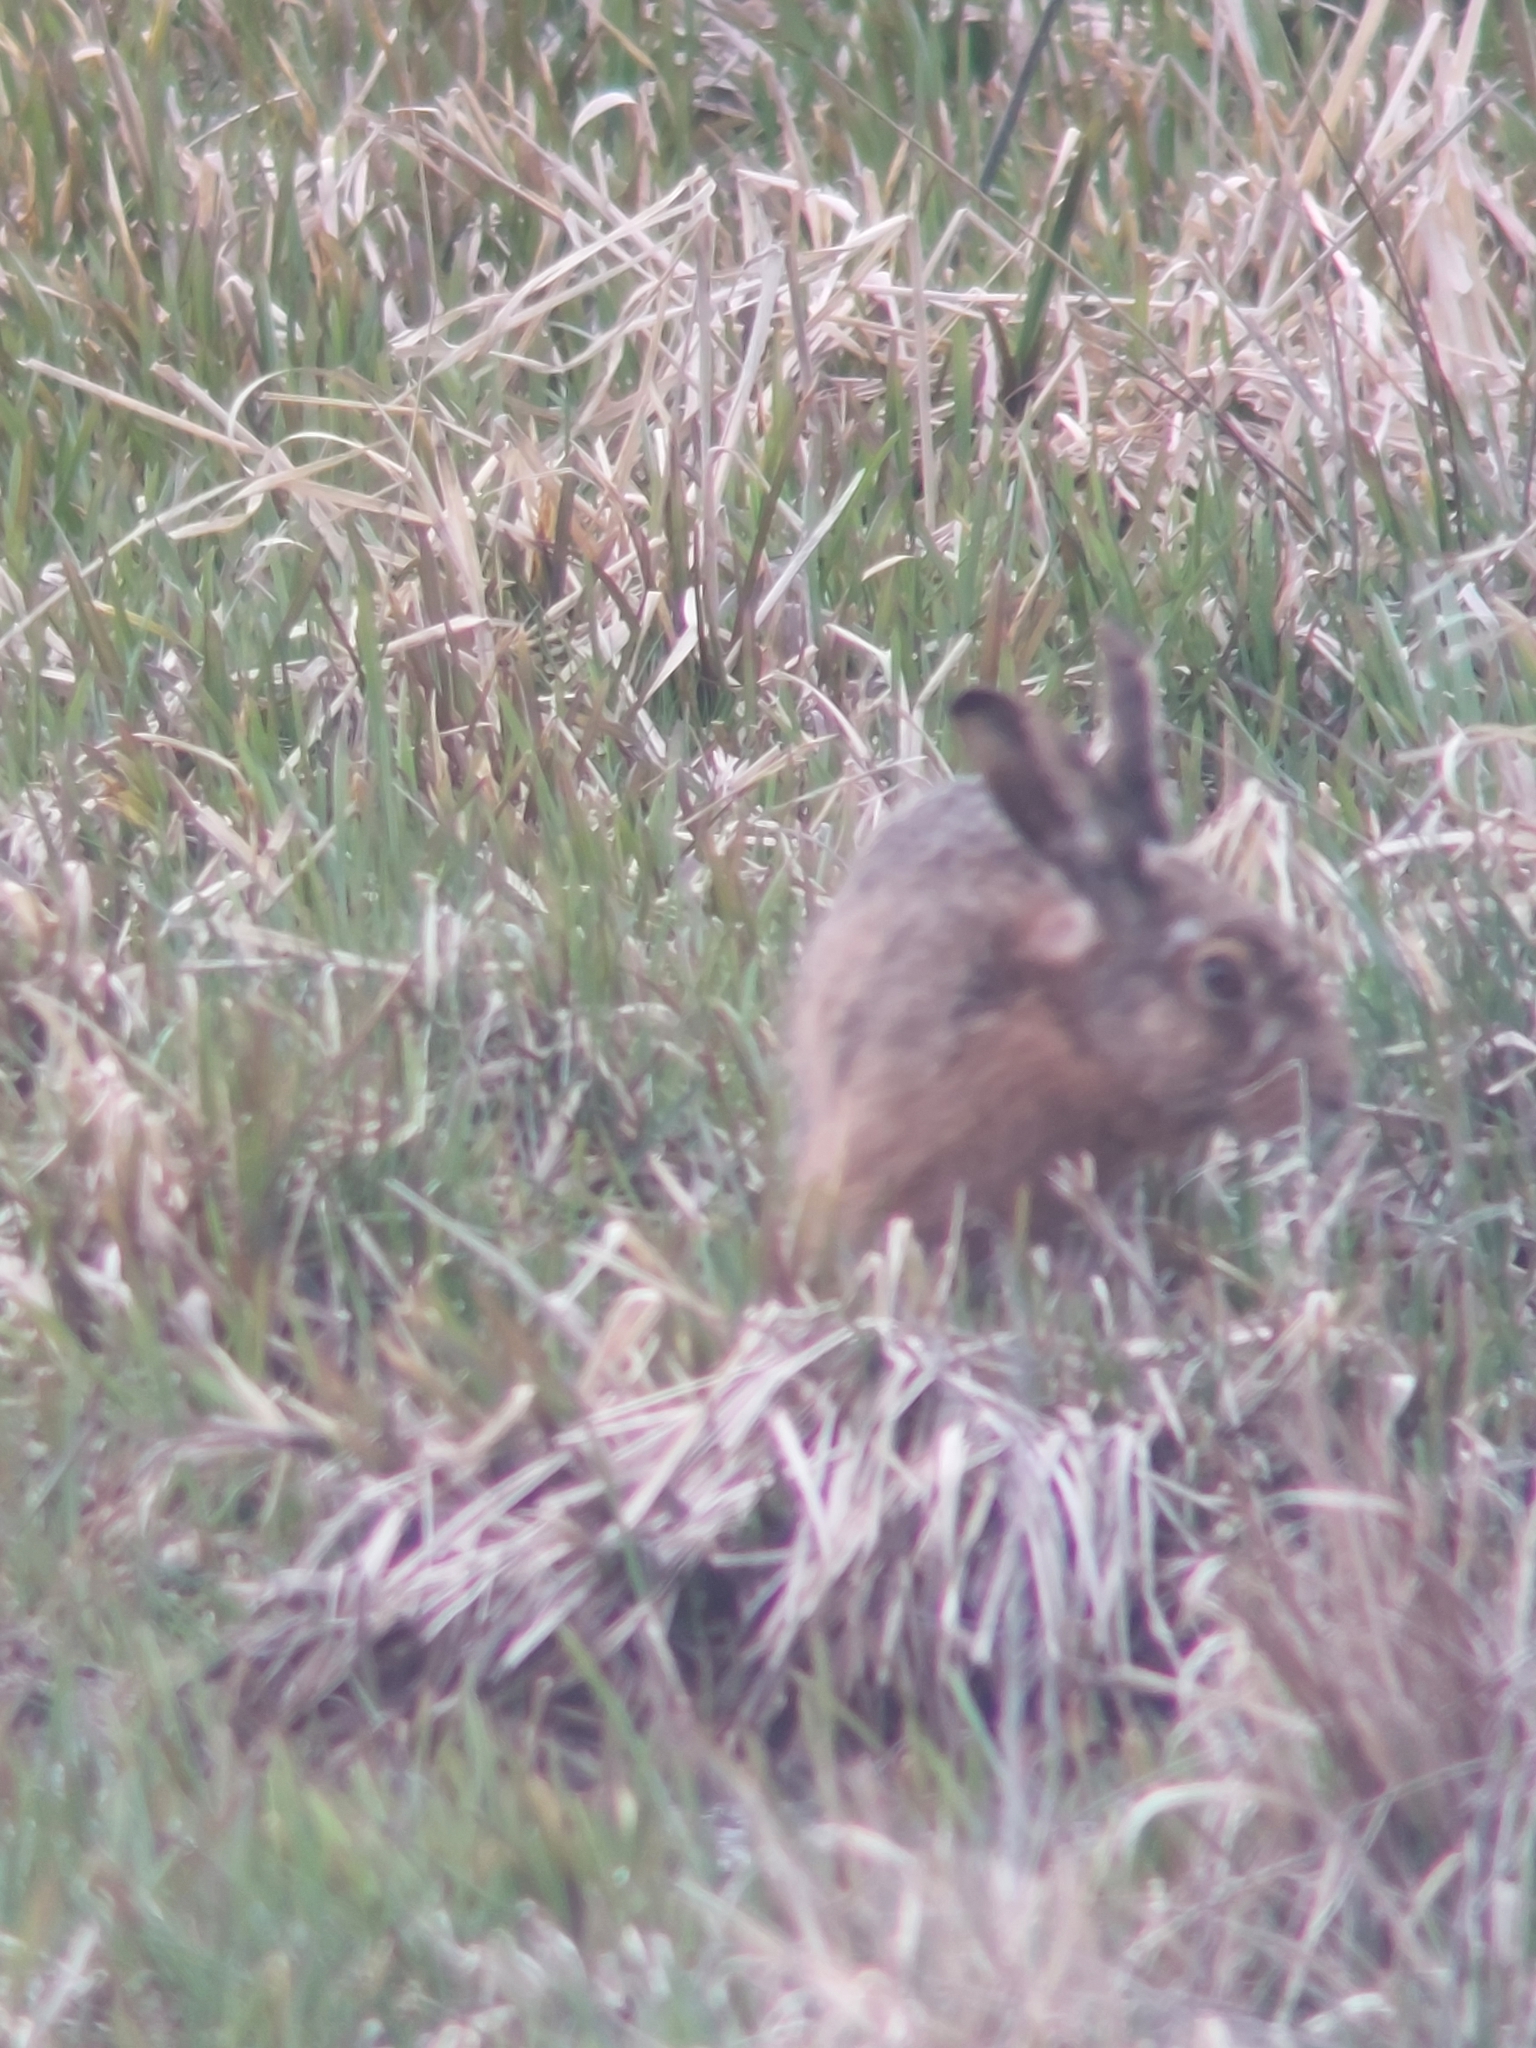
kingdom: Animalia
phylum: Chordata
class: Mammalia
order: Lagomorpha
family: Leporidae
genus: Lepus
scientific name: Lepus europaeus
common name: European hare
